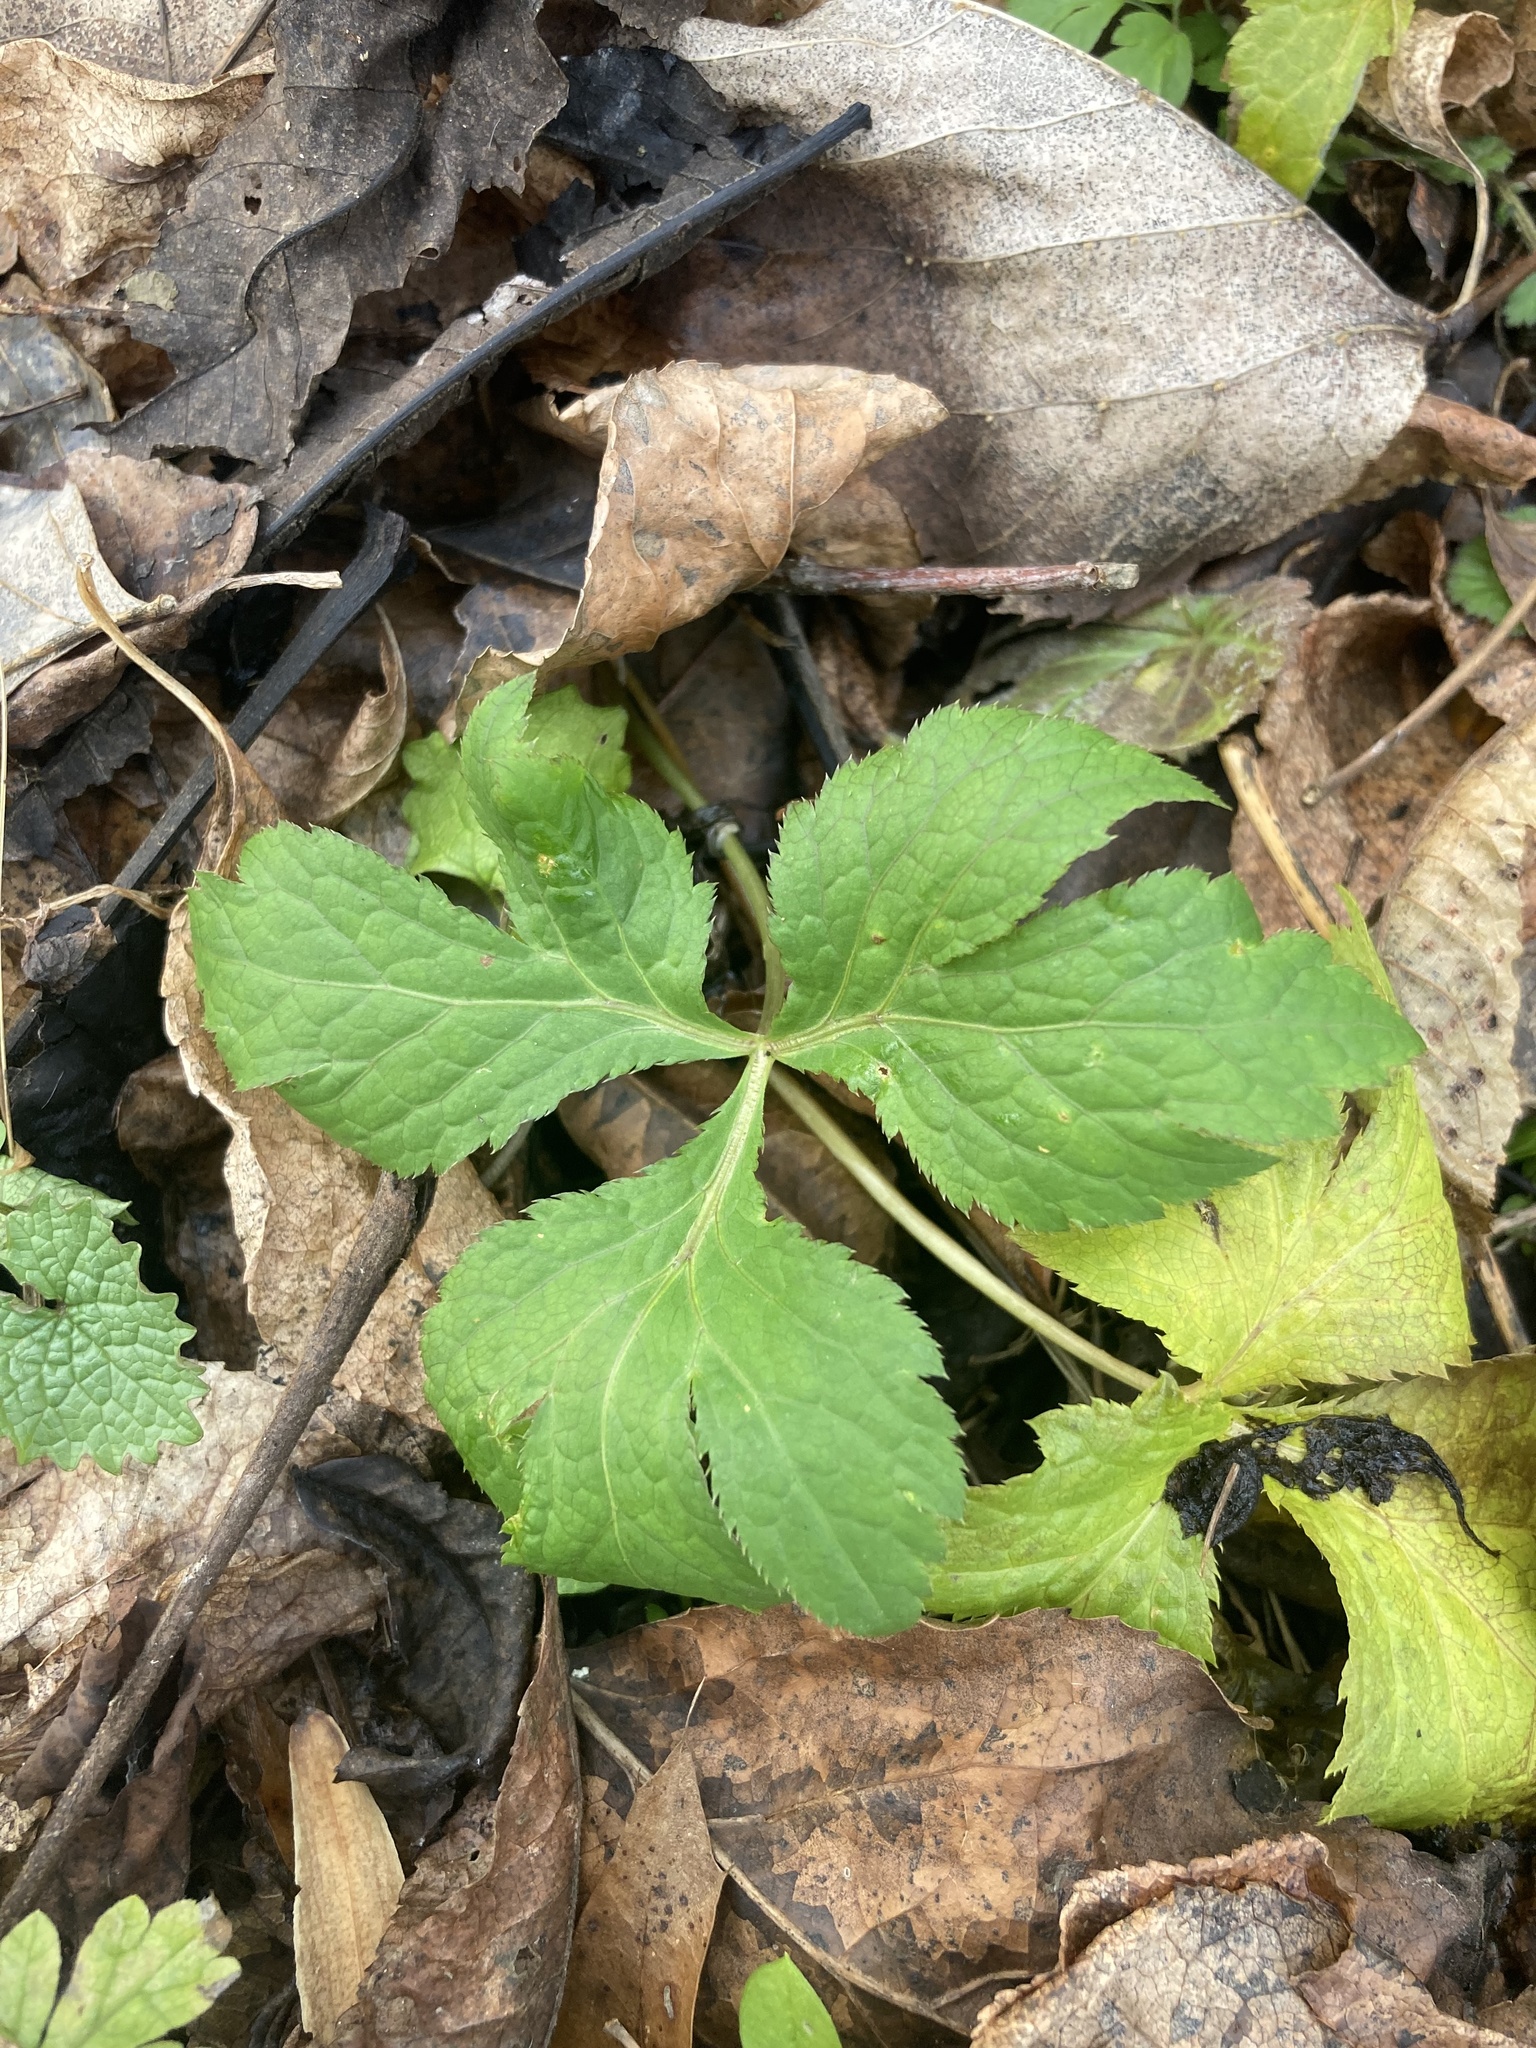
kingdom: Plantae
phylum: Tracheophyta
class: Magnoliopsida
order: Apiales
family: Apiaceae
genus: Cryptotaenia
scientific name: Cryptotaenia canadensis
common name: Honewort
